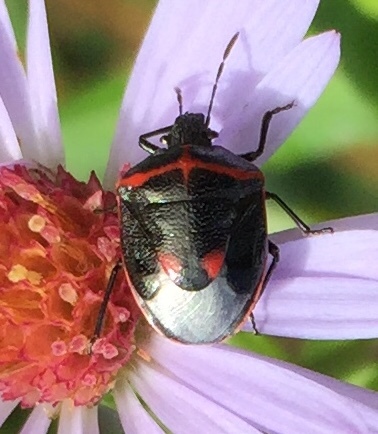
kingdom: Animalia
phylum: Arthropoda
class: Insecta
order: Hemiptera
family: Pentatomidae
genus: Cosmopepla
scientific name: Cosmopepla lintneriana
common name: Twice-stabbed stink bug
